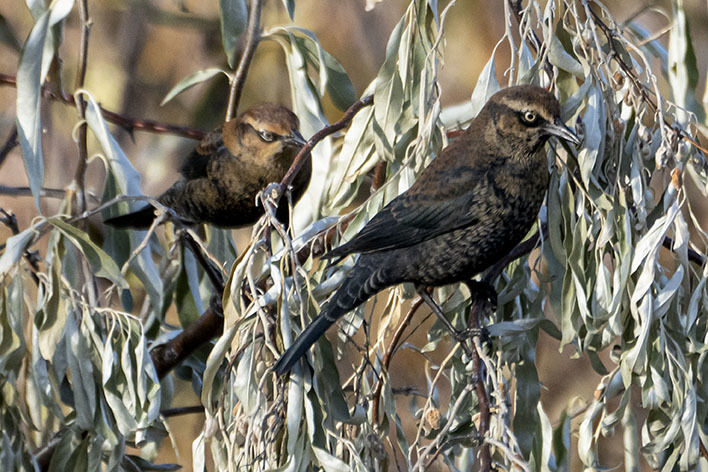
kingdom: Animalia
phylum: Chordata
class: Aves
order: Passeriformes
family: Icteridae
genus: Euphagus
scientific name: Euphagus carolinus
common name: Rusty blackbird
